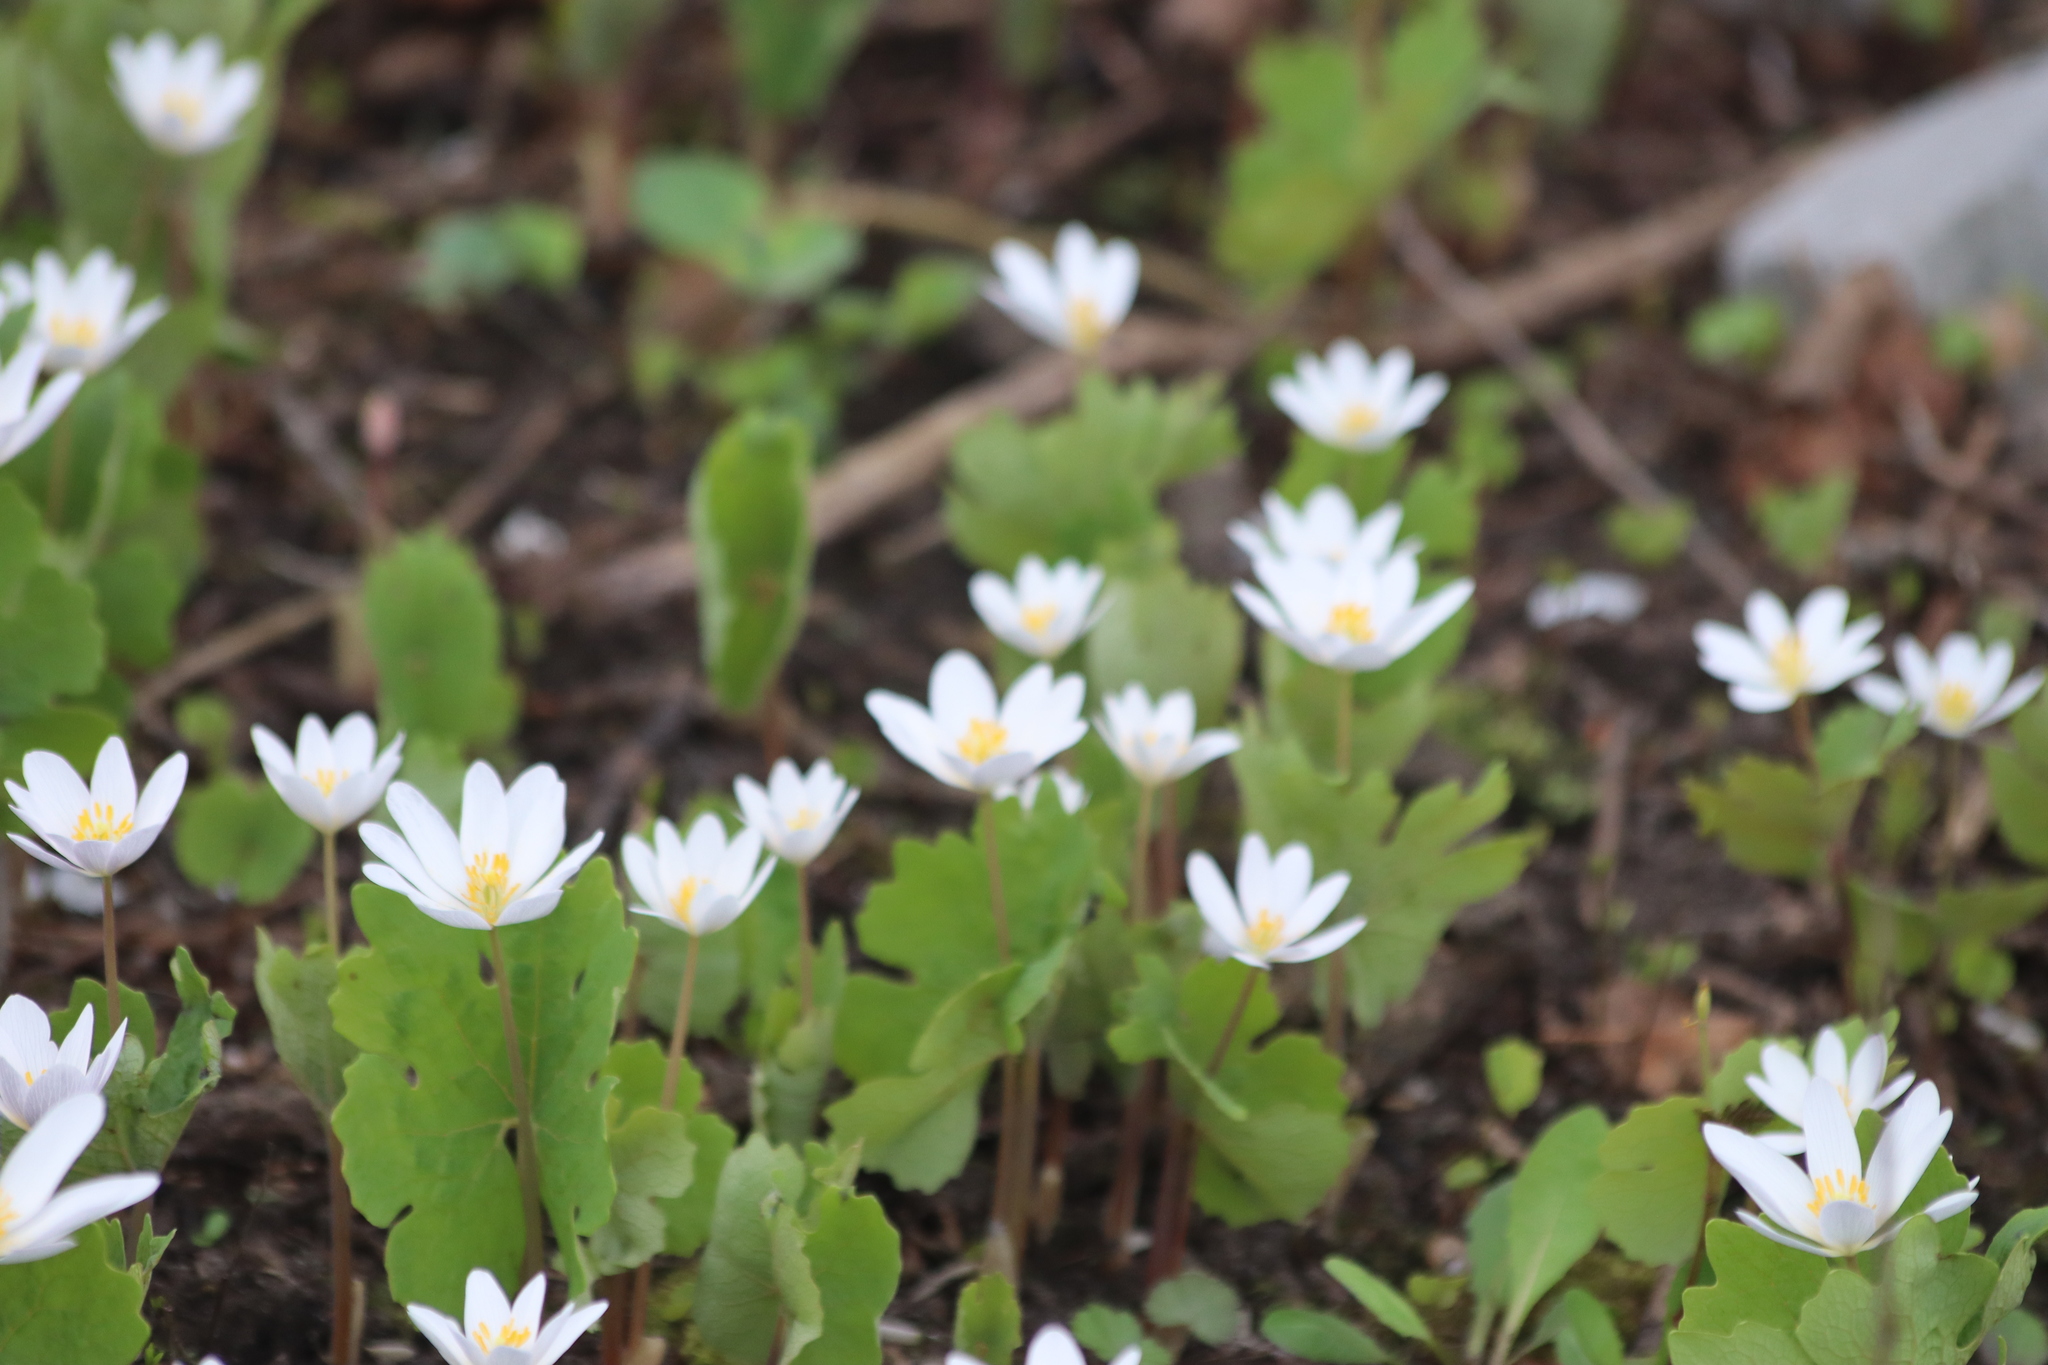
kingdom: Plantae
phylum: Tracheophyta
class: Magnoliopsida
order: Ranunculales
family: Papaveraceae
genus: Sanguinaria
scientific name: Sanguinaria canadensis
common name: Bloodroot
